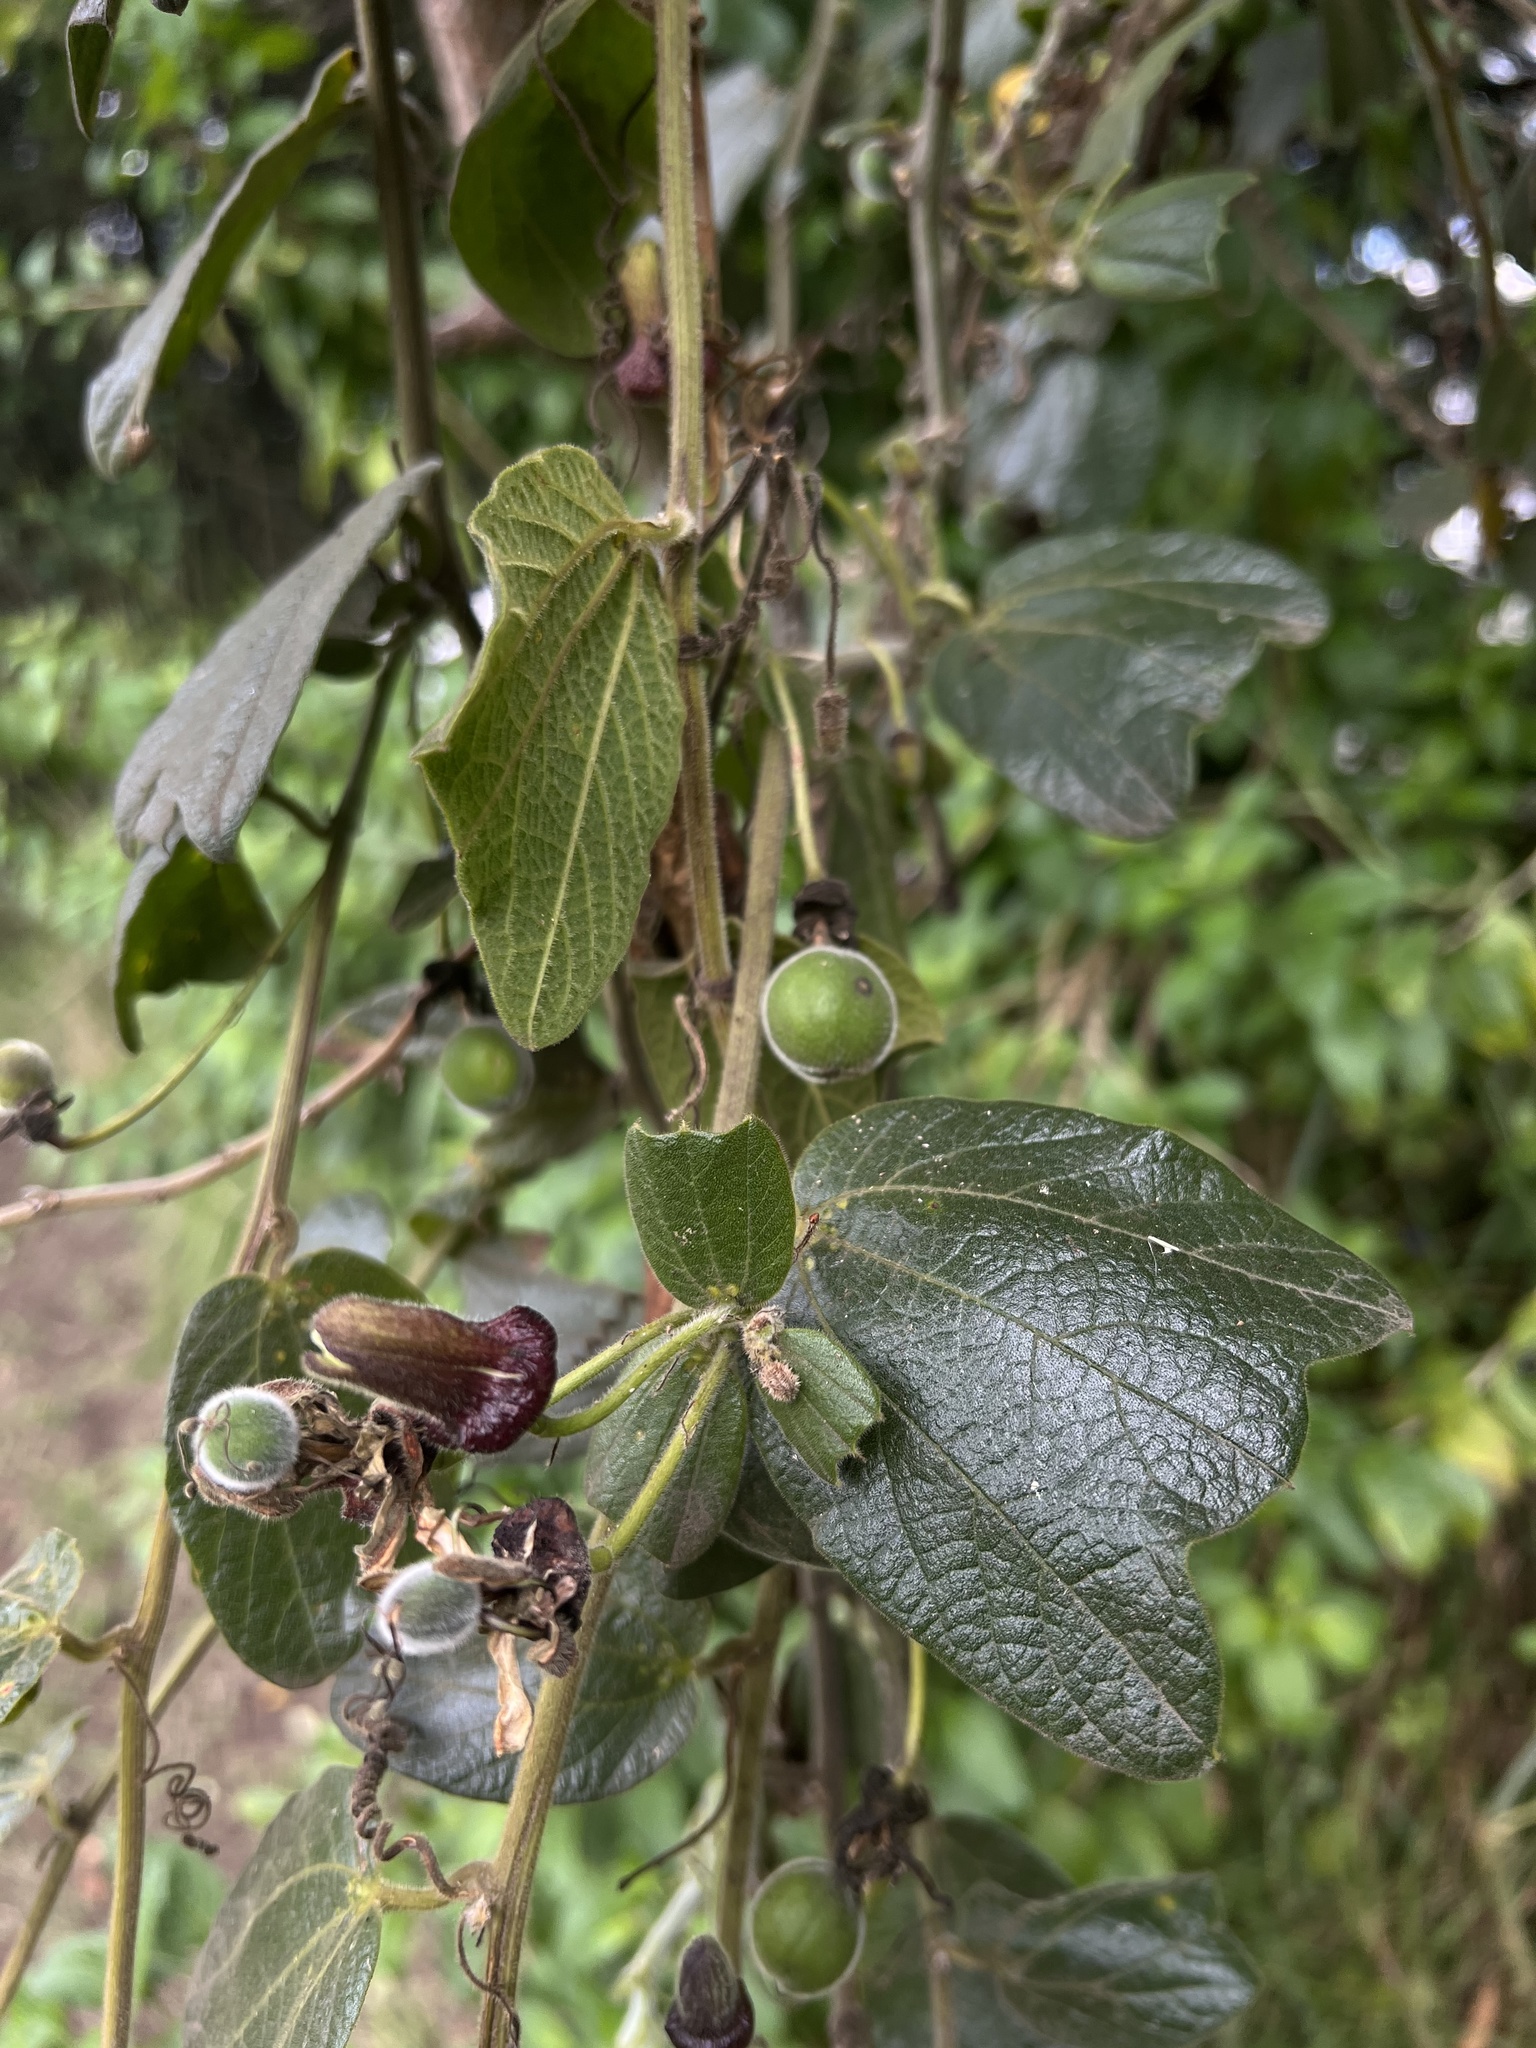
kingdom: Plantae
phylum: Tracheophyta
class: Magnoliopsida
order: Malpighiales
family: Passifloraceae
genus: Passiflora
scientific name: Passiflora bogotensis
